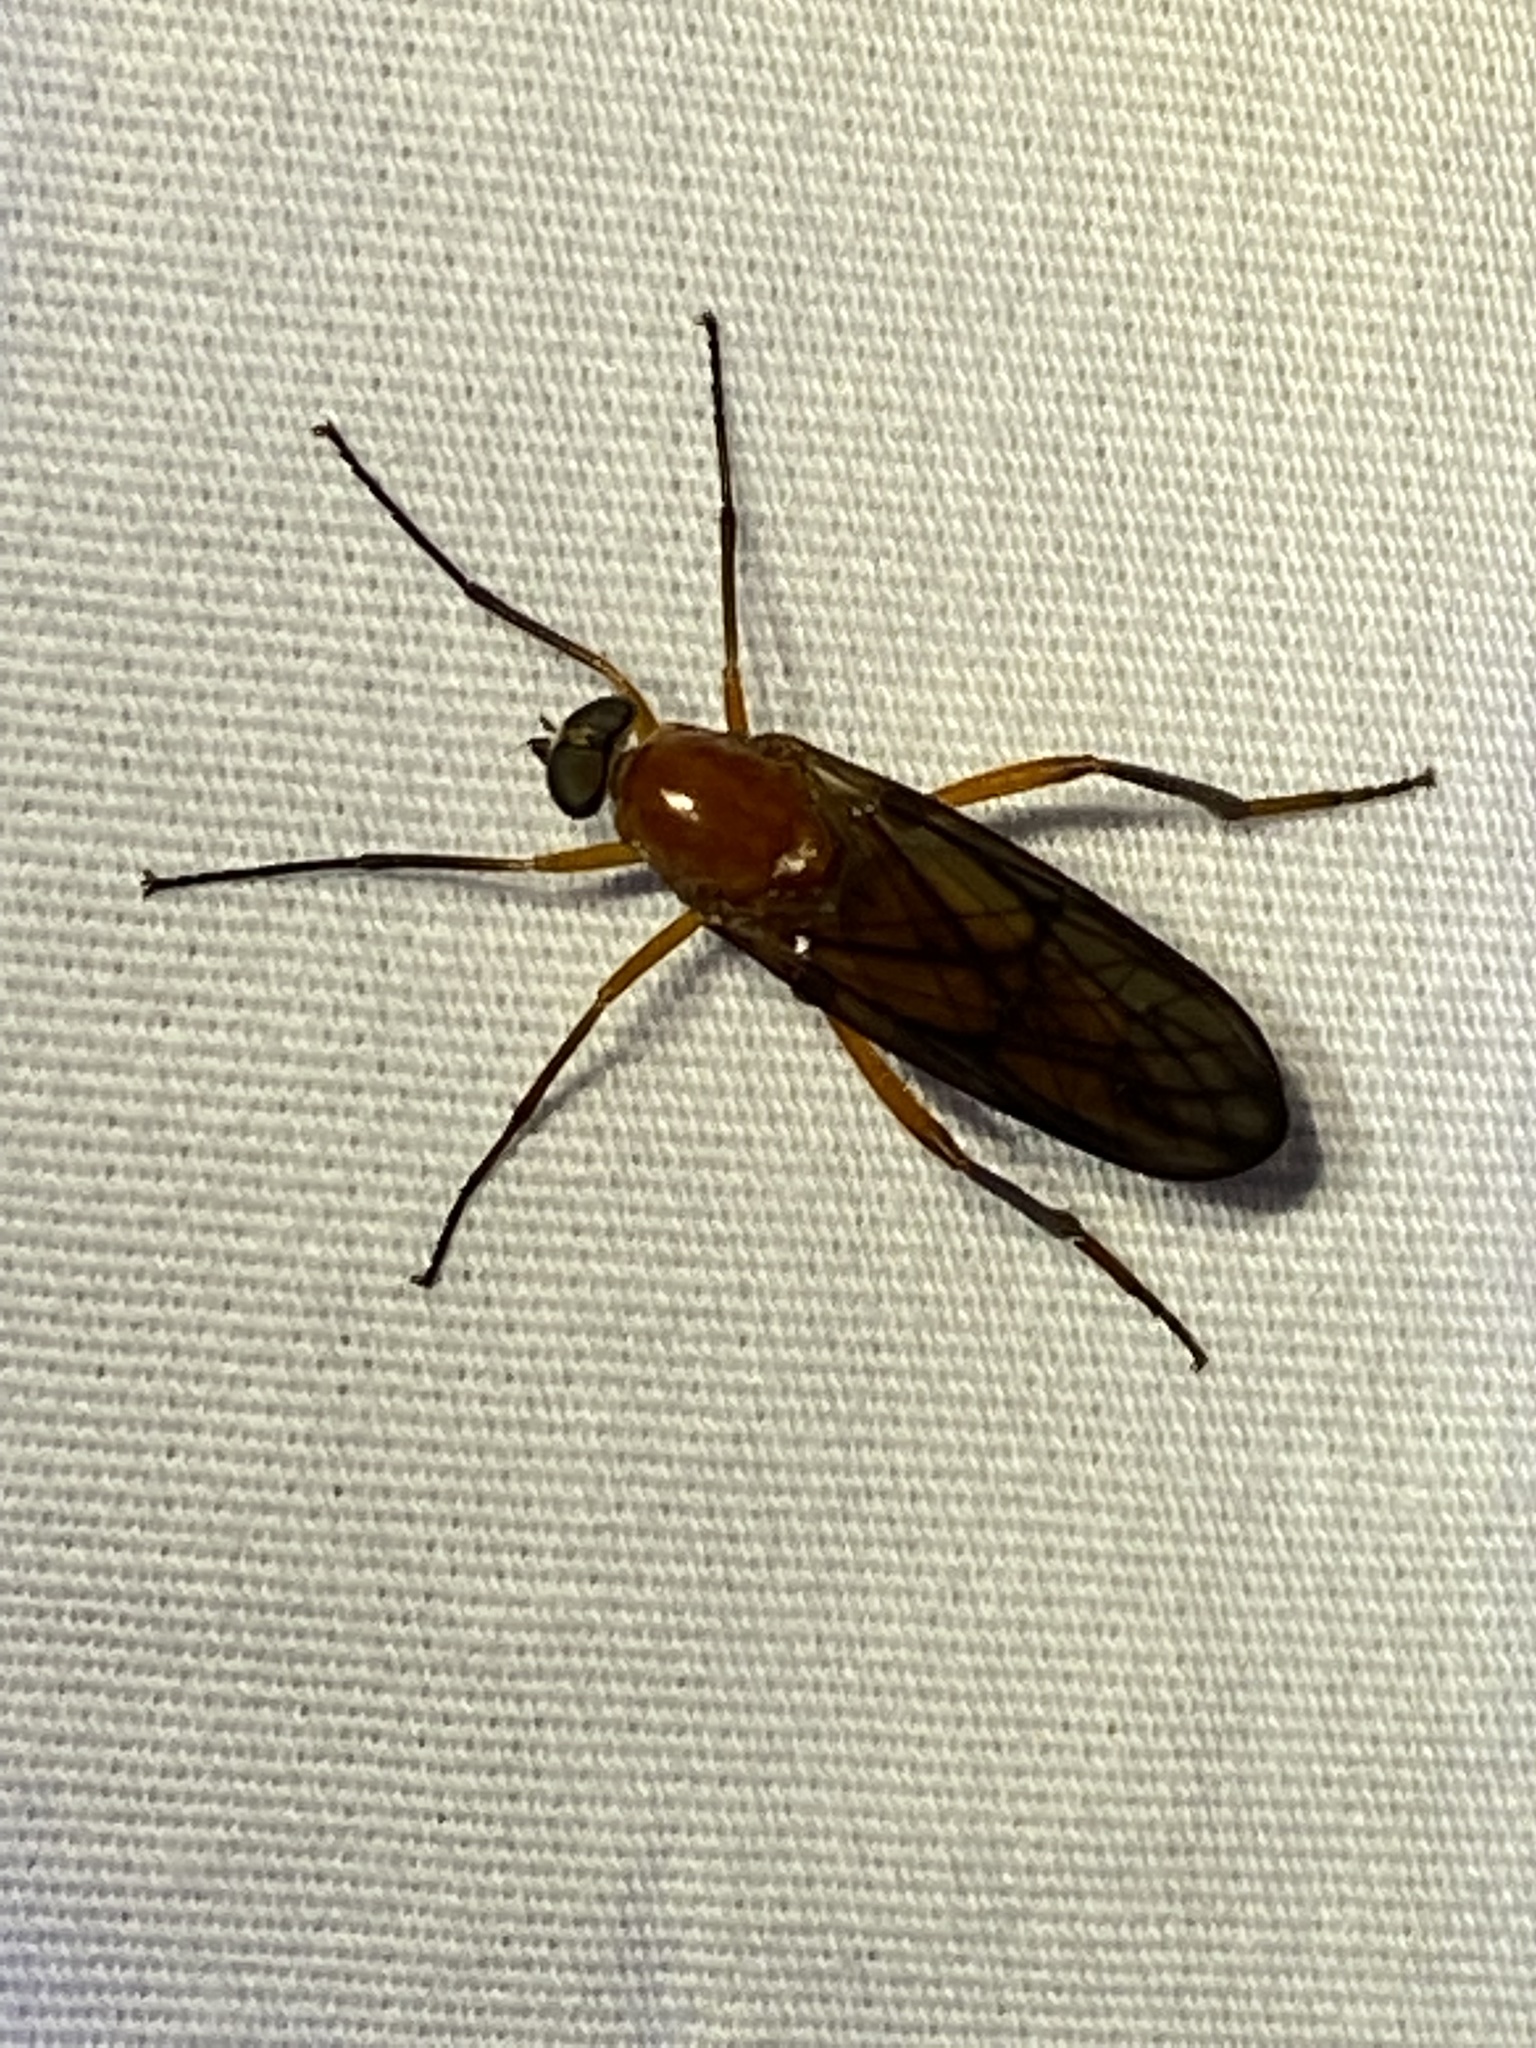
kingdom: Animalia
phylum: Arthropoda
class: Insecta
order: Diptera
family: Xylophagidae
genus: Dialysis
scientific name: Dialysis rufithorax
